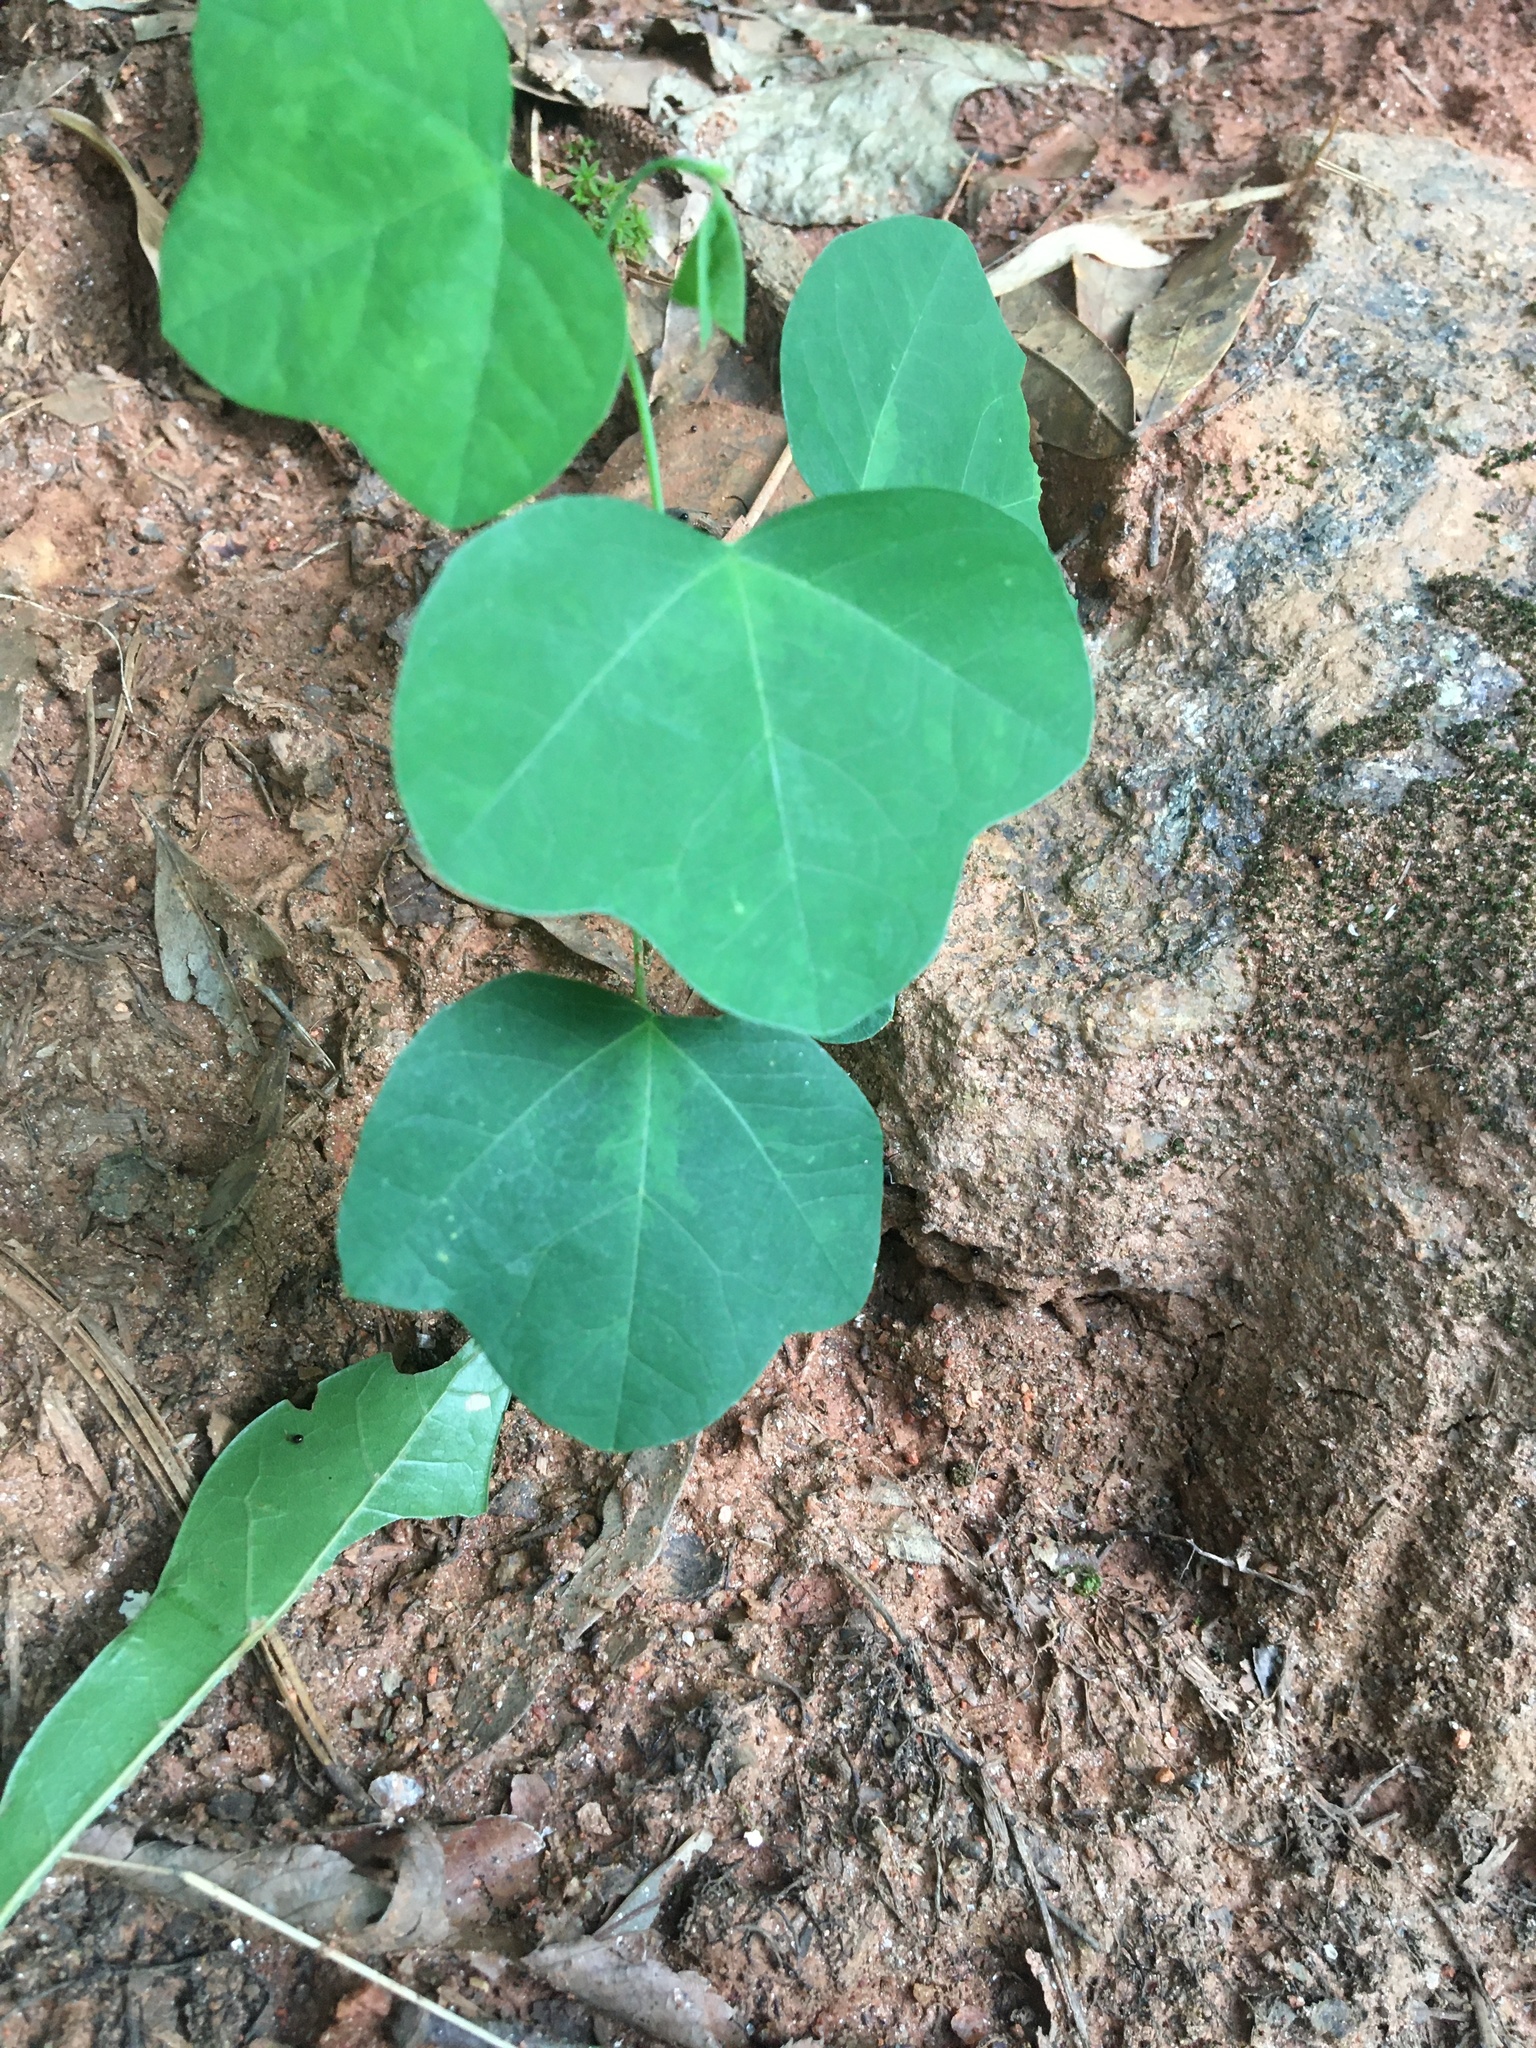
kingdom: Plantae
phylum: Tracheophyta
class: Magnoliopsida
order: Malpighiales
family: Passifloraceae
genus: Passiflora
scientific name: Passiflora lutea
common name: Yellow passionflower
